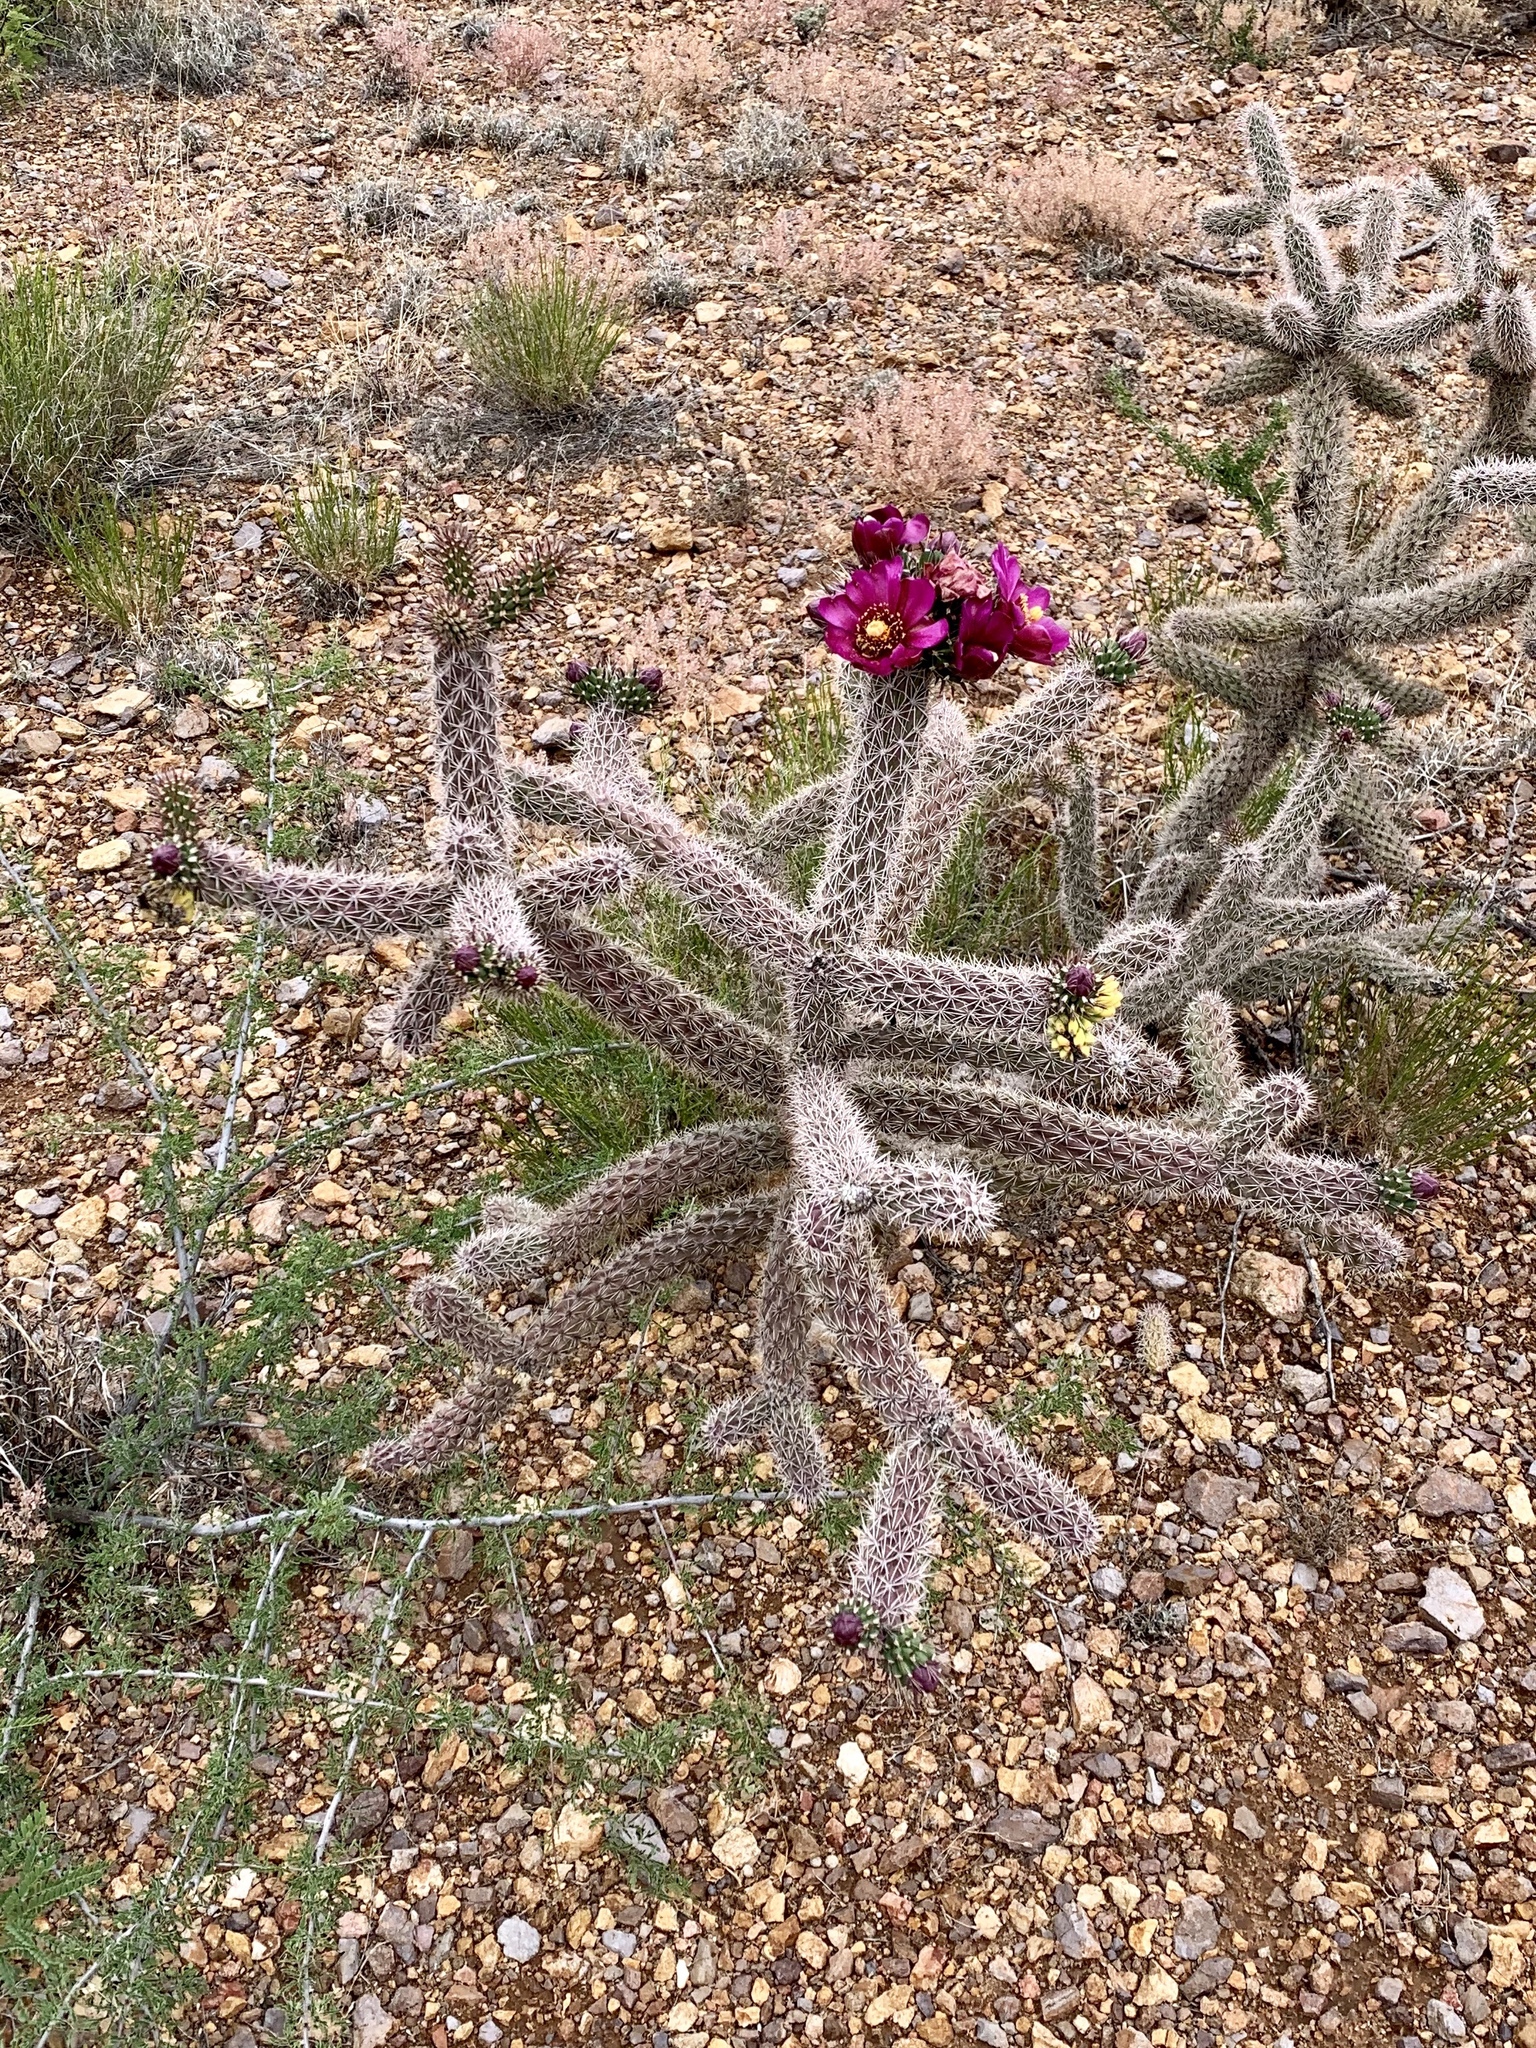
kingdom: Plantae
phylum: Tracheophyta
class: Magnoliopsida
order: Caryophyllales
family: Cactaceae
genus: Cylindropuntia
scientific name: Cylindropuntia imbricata
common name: Candelabrum cactus
